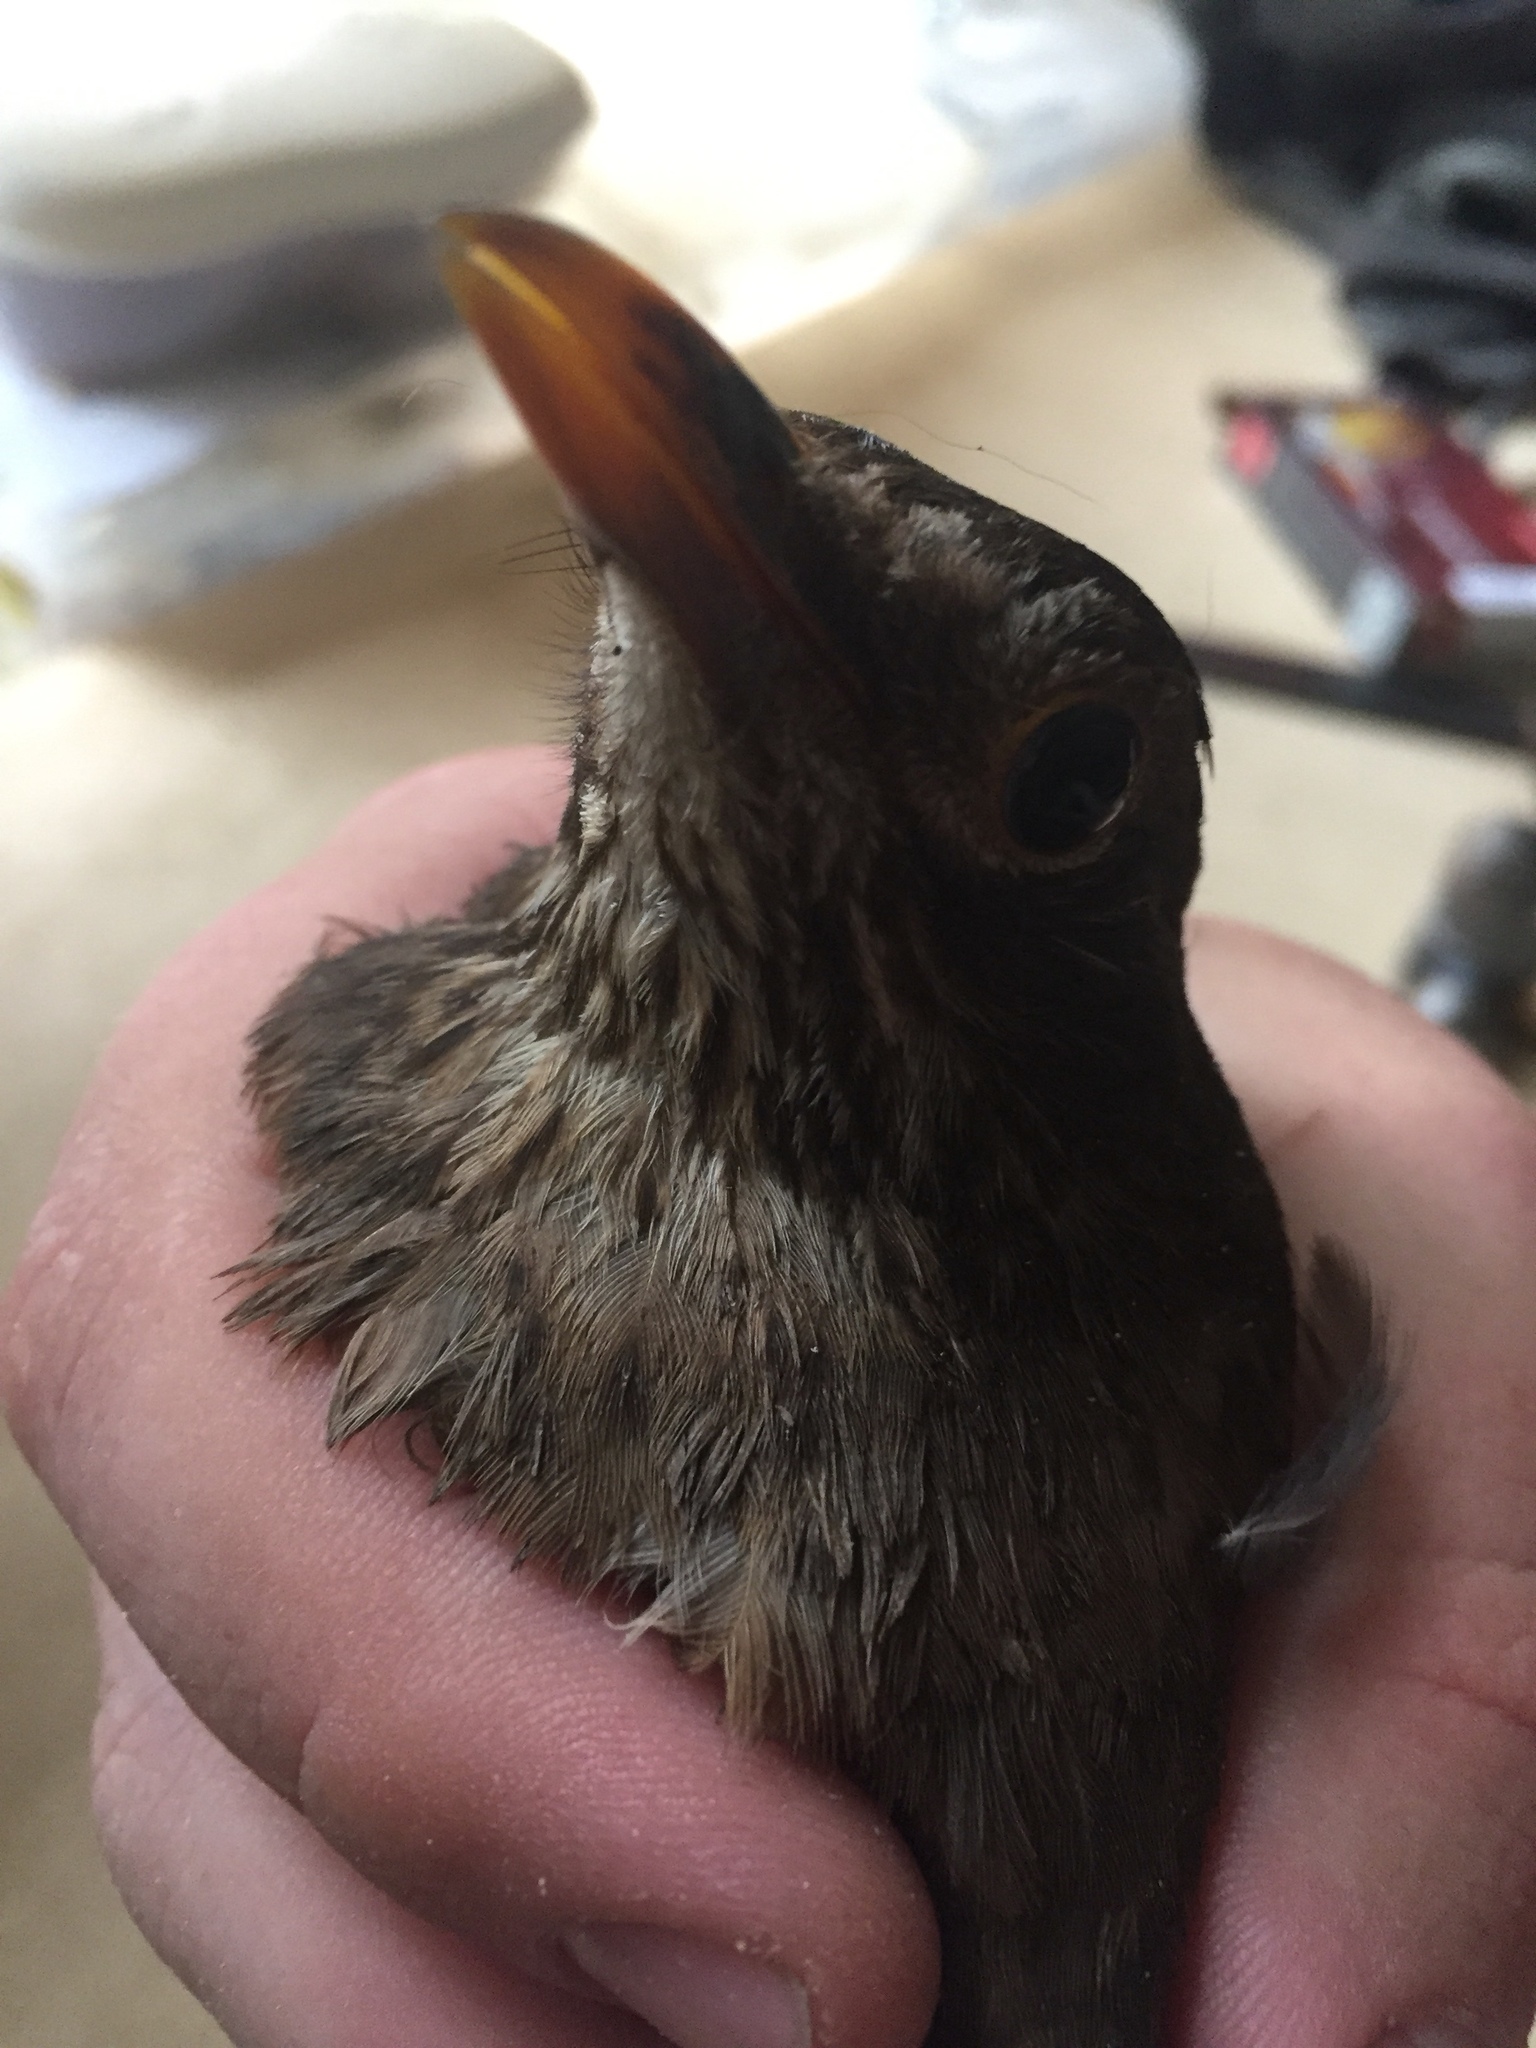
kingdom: Animalia
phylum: Chordata
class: Aves
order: Passeriformes
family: Turdidae
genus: Turdus
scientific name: Turdus merula
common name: Common blackbird
